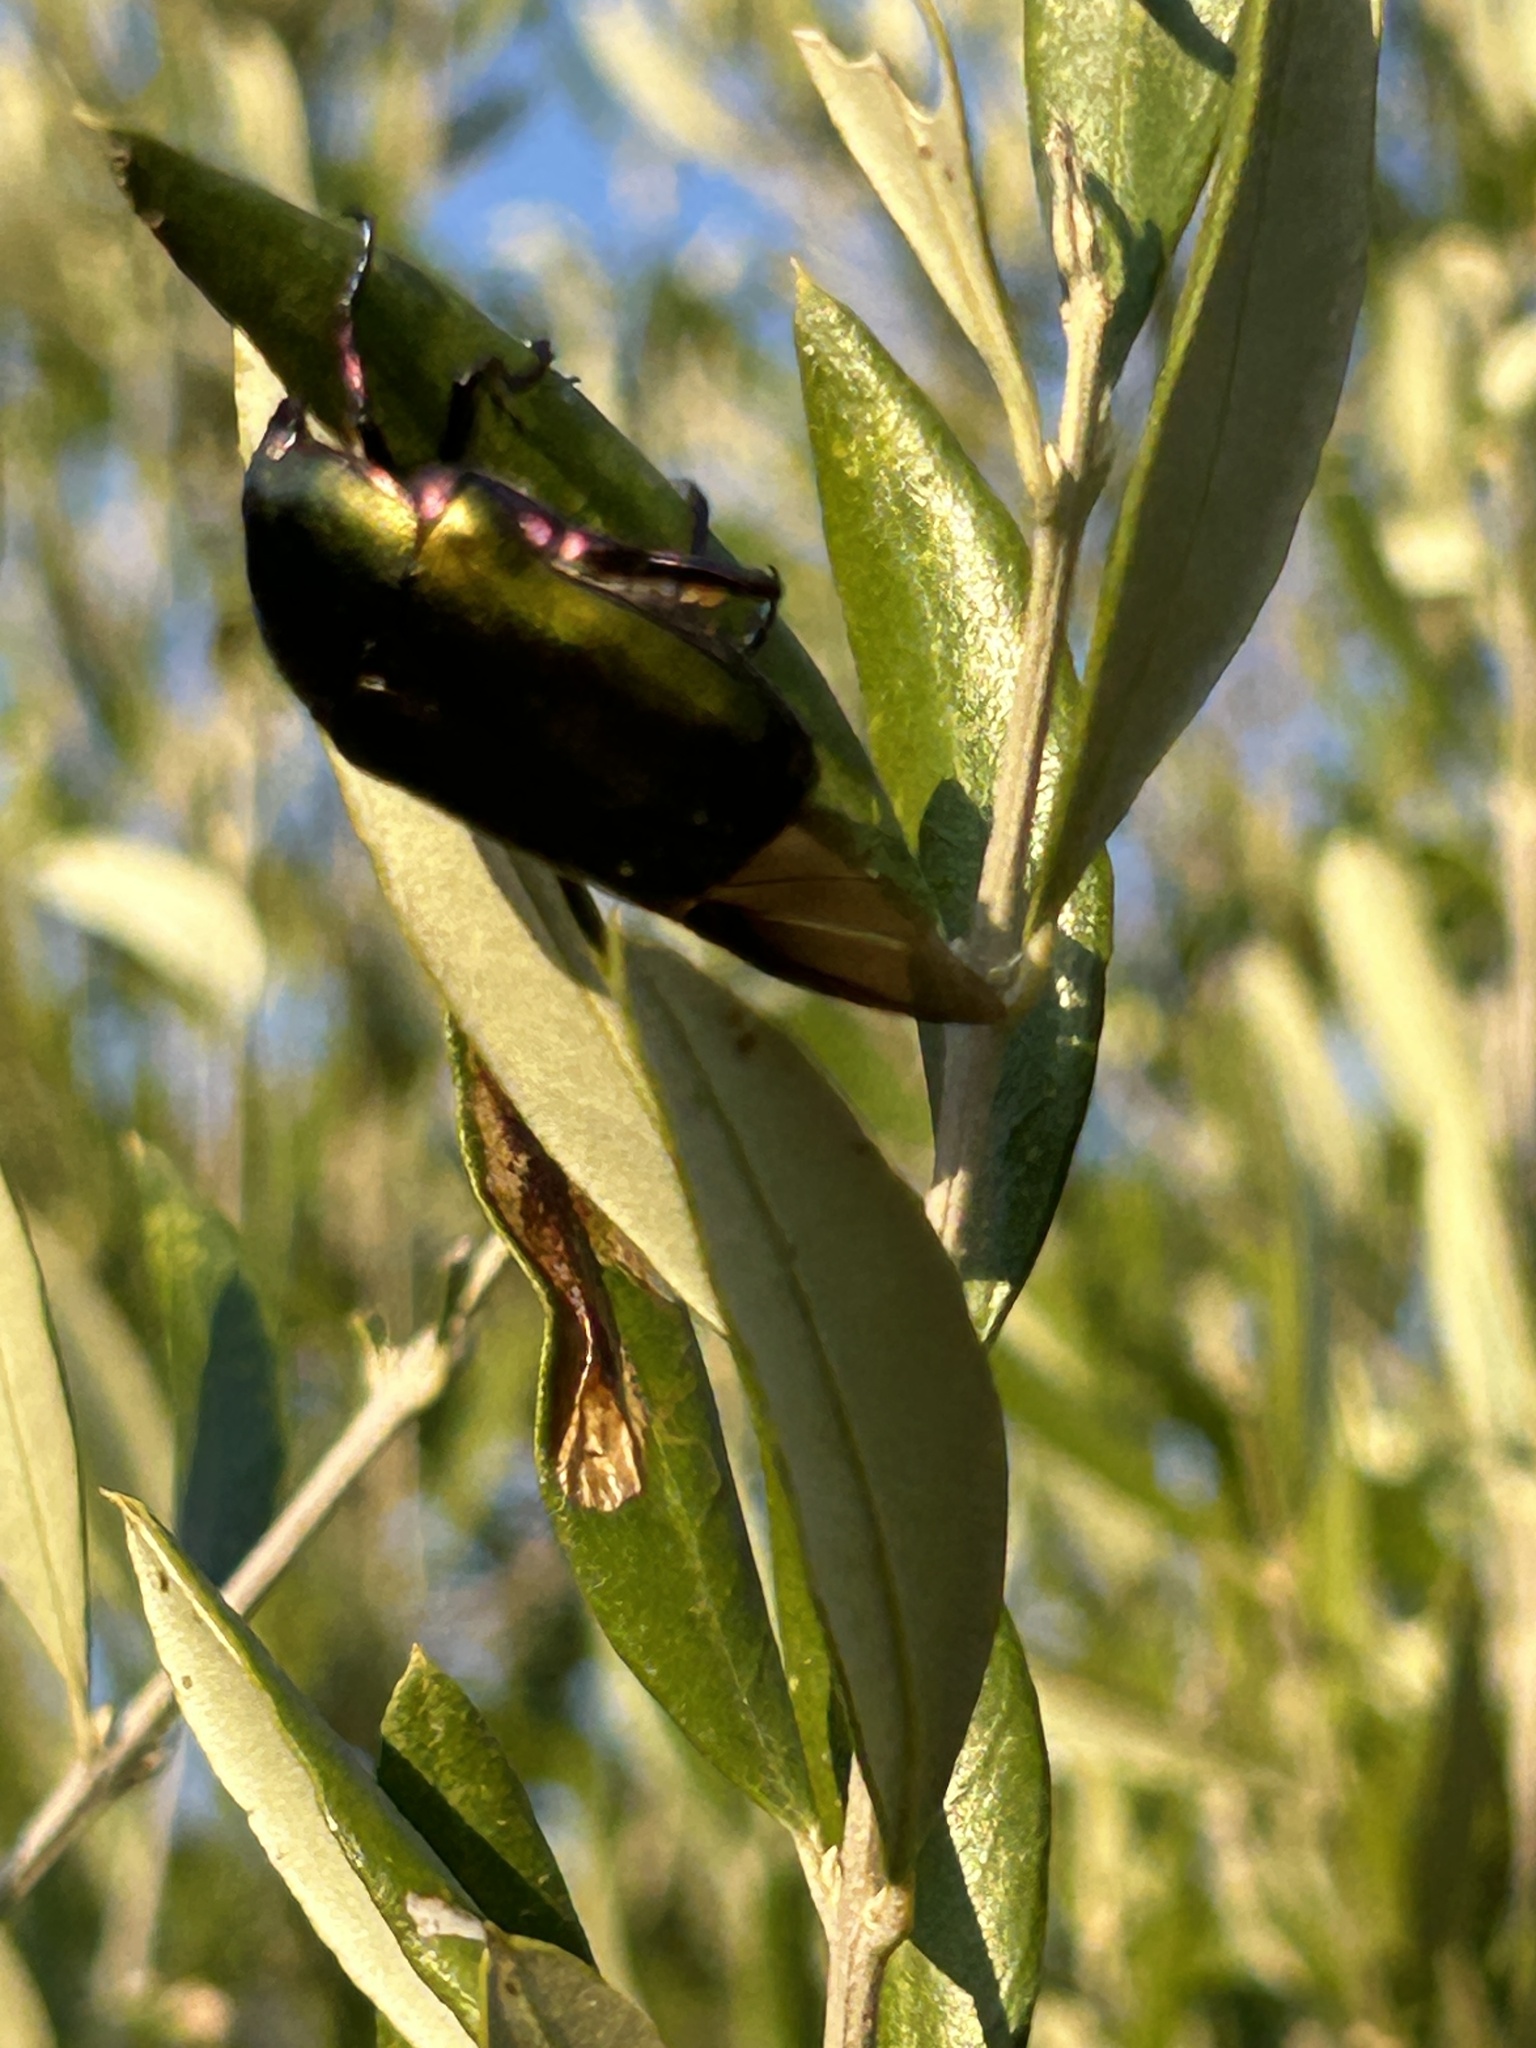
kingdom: Animalia
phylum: Arthropoda
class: Insecta
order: Coleoptera
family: Scarabaeidae
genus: Protaetia
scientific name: Protaetia cuprea
